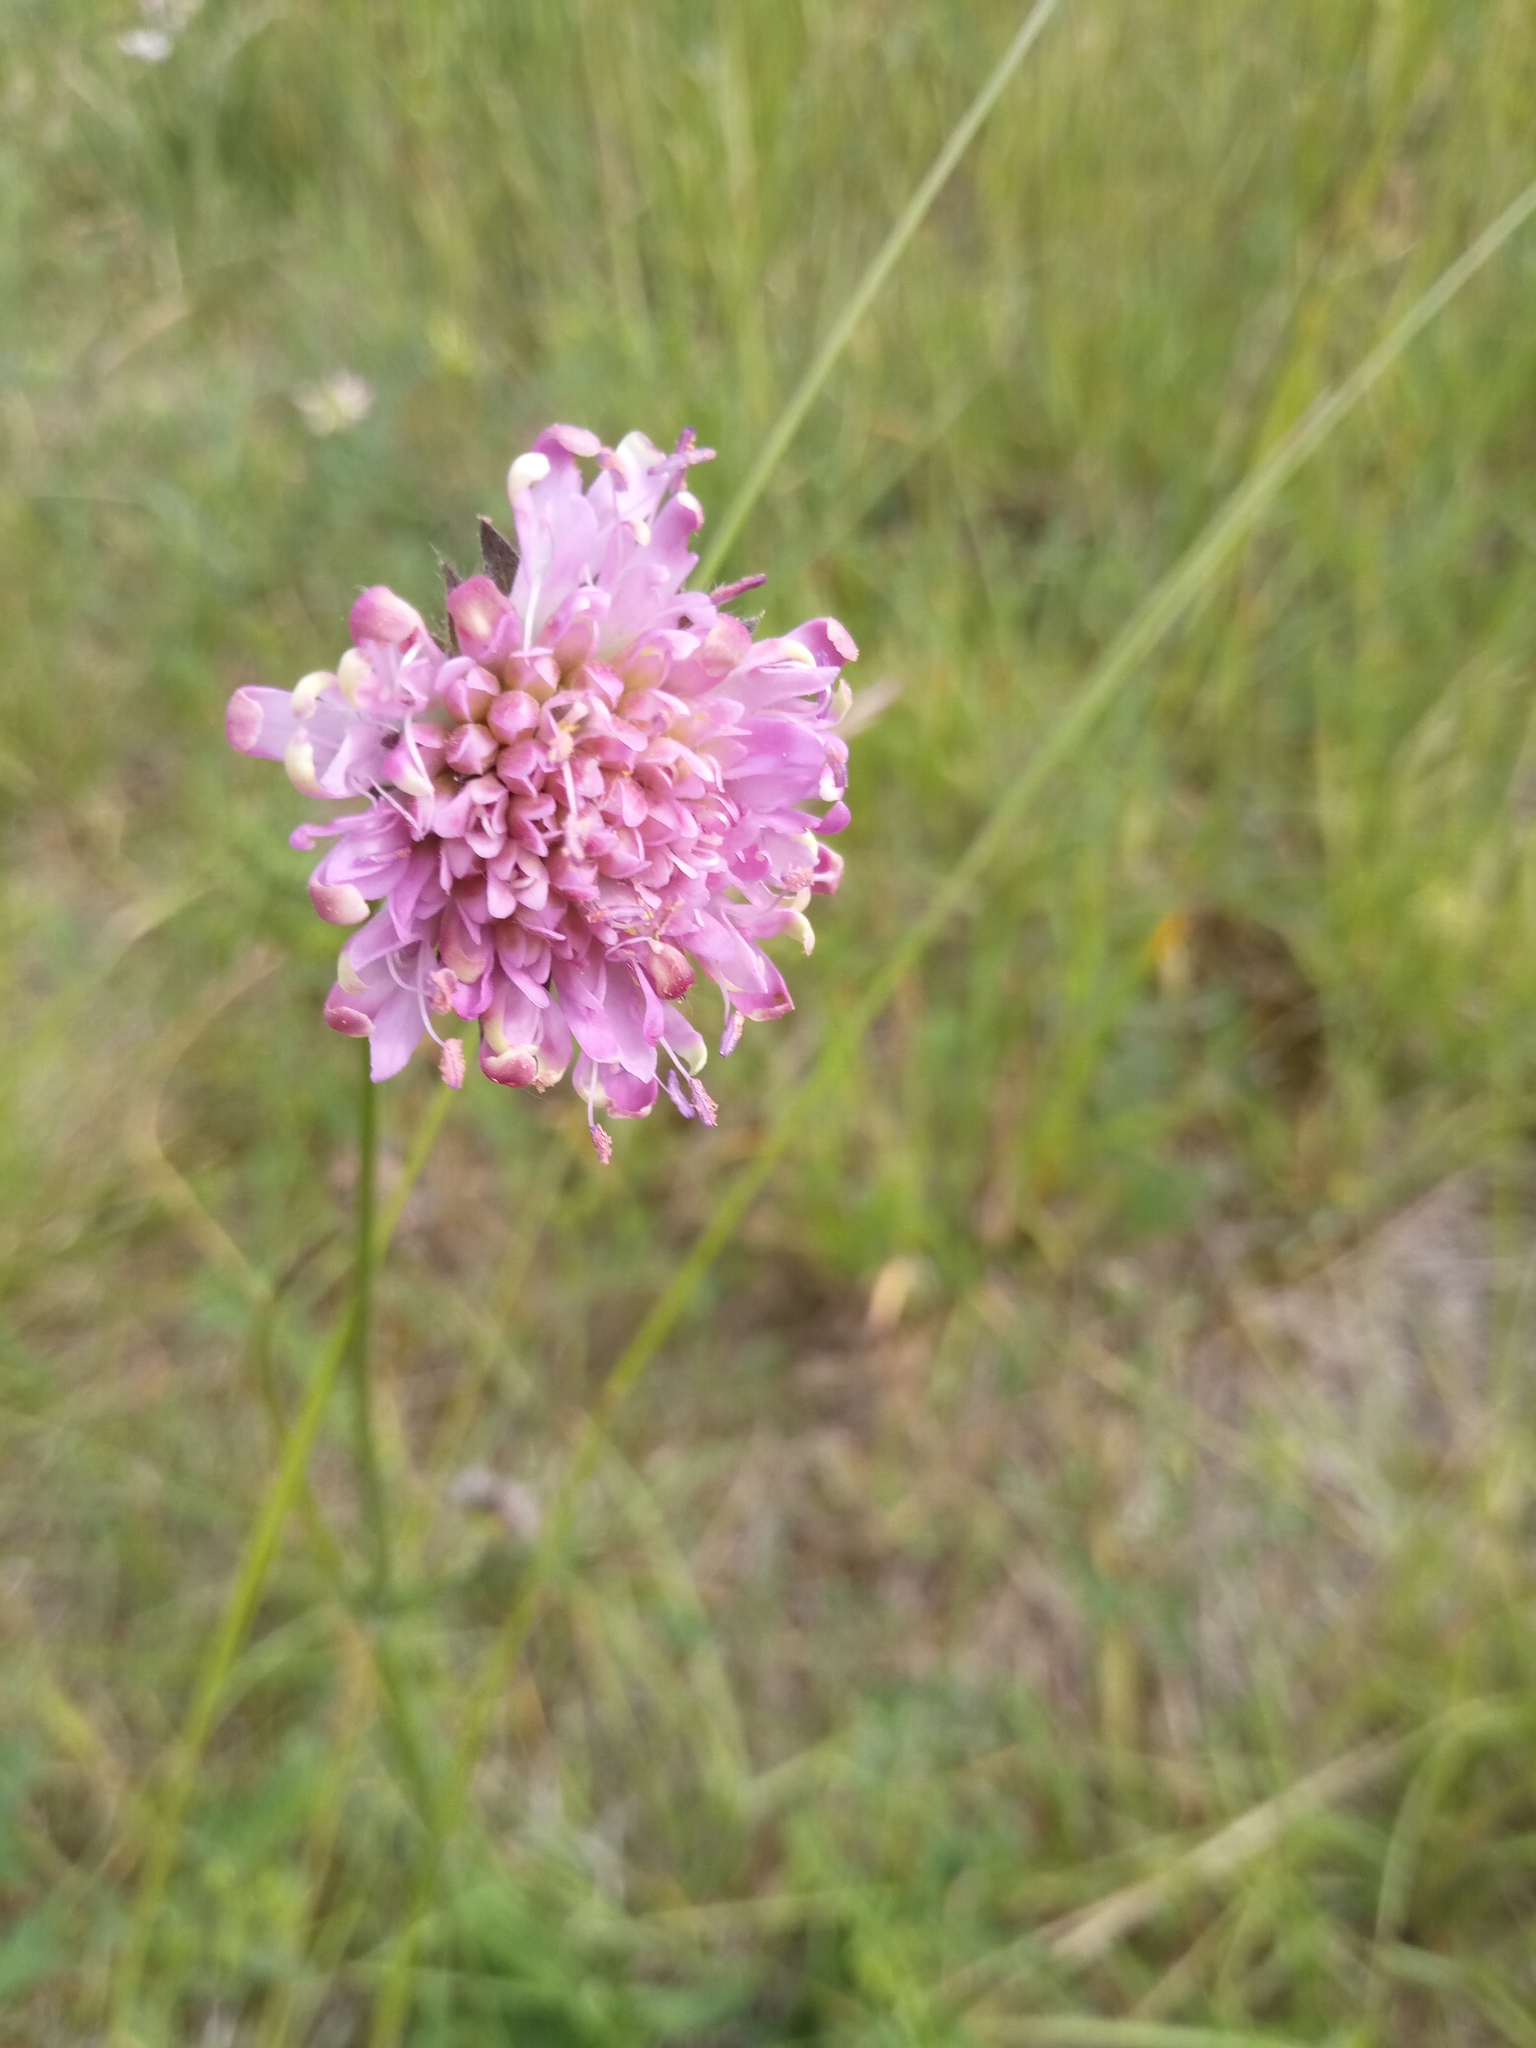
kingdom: Plantae
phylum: Tracheophyta
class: Magnoliopsida
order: Dipsacales
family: Caprifoliaceae
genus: Knautia
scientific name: Knautia arvensis
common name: Field scabiosa
